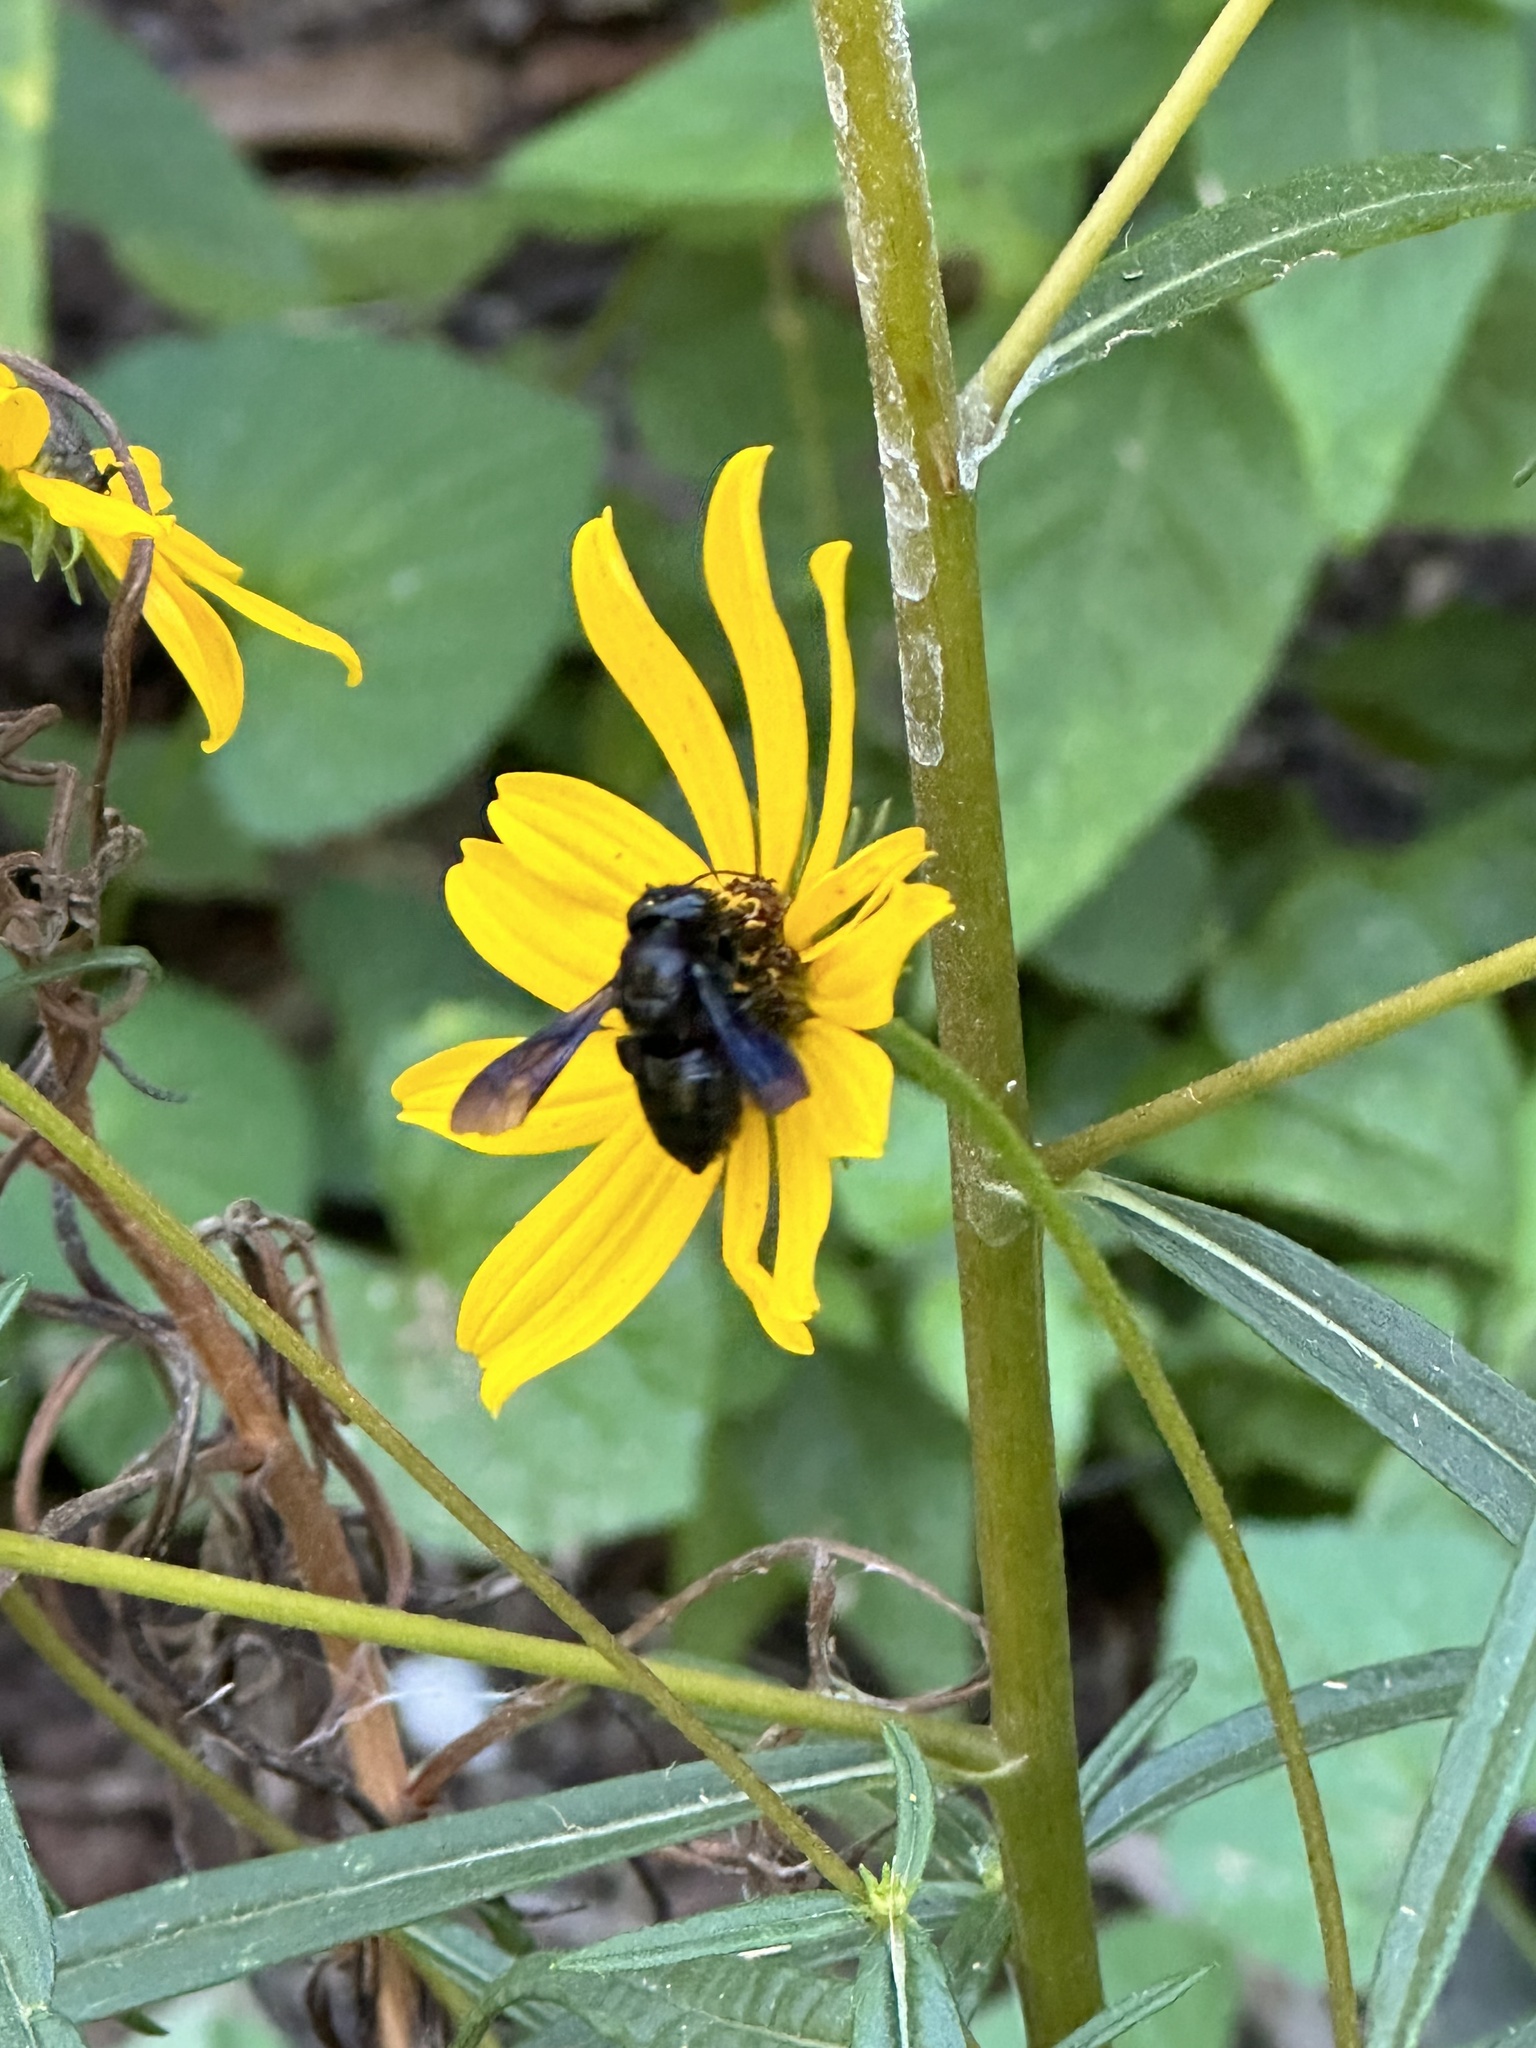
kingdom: Animalia
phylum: Arthropoda
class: Insecta
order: Hymenoptera
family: Megachilidae
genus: Megachile
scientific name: Megachile xylocopoides
